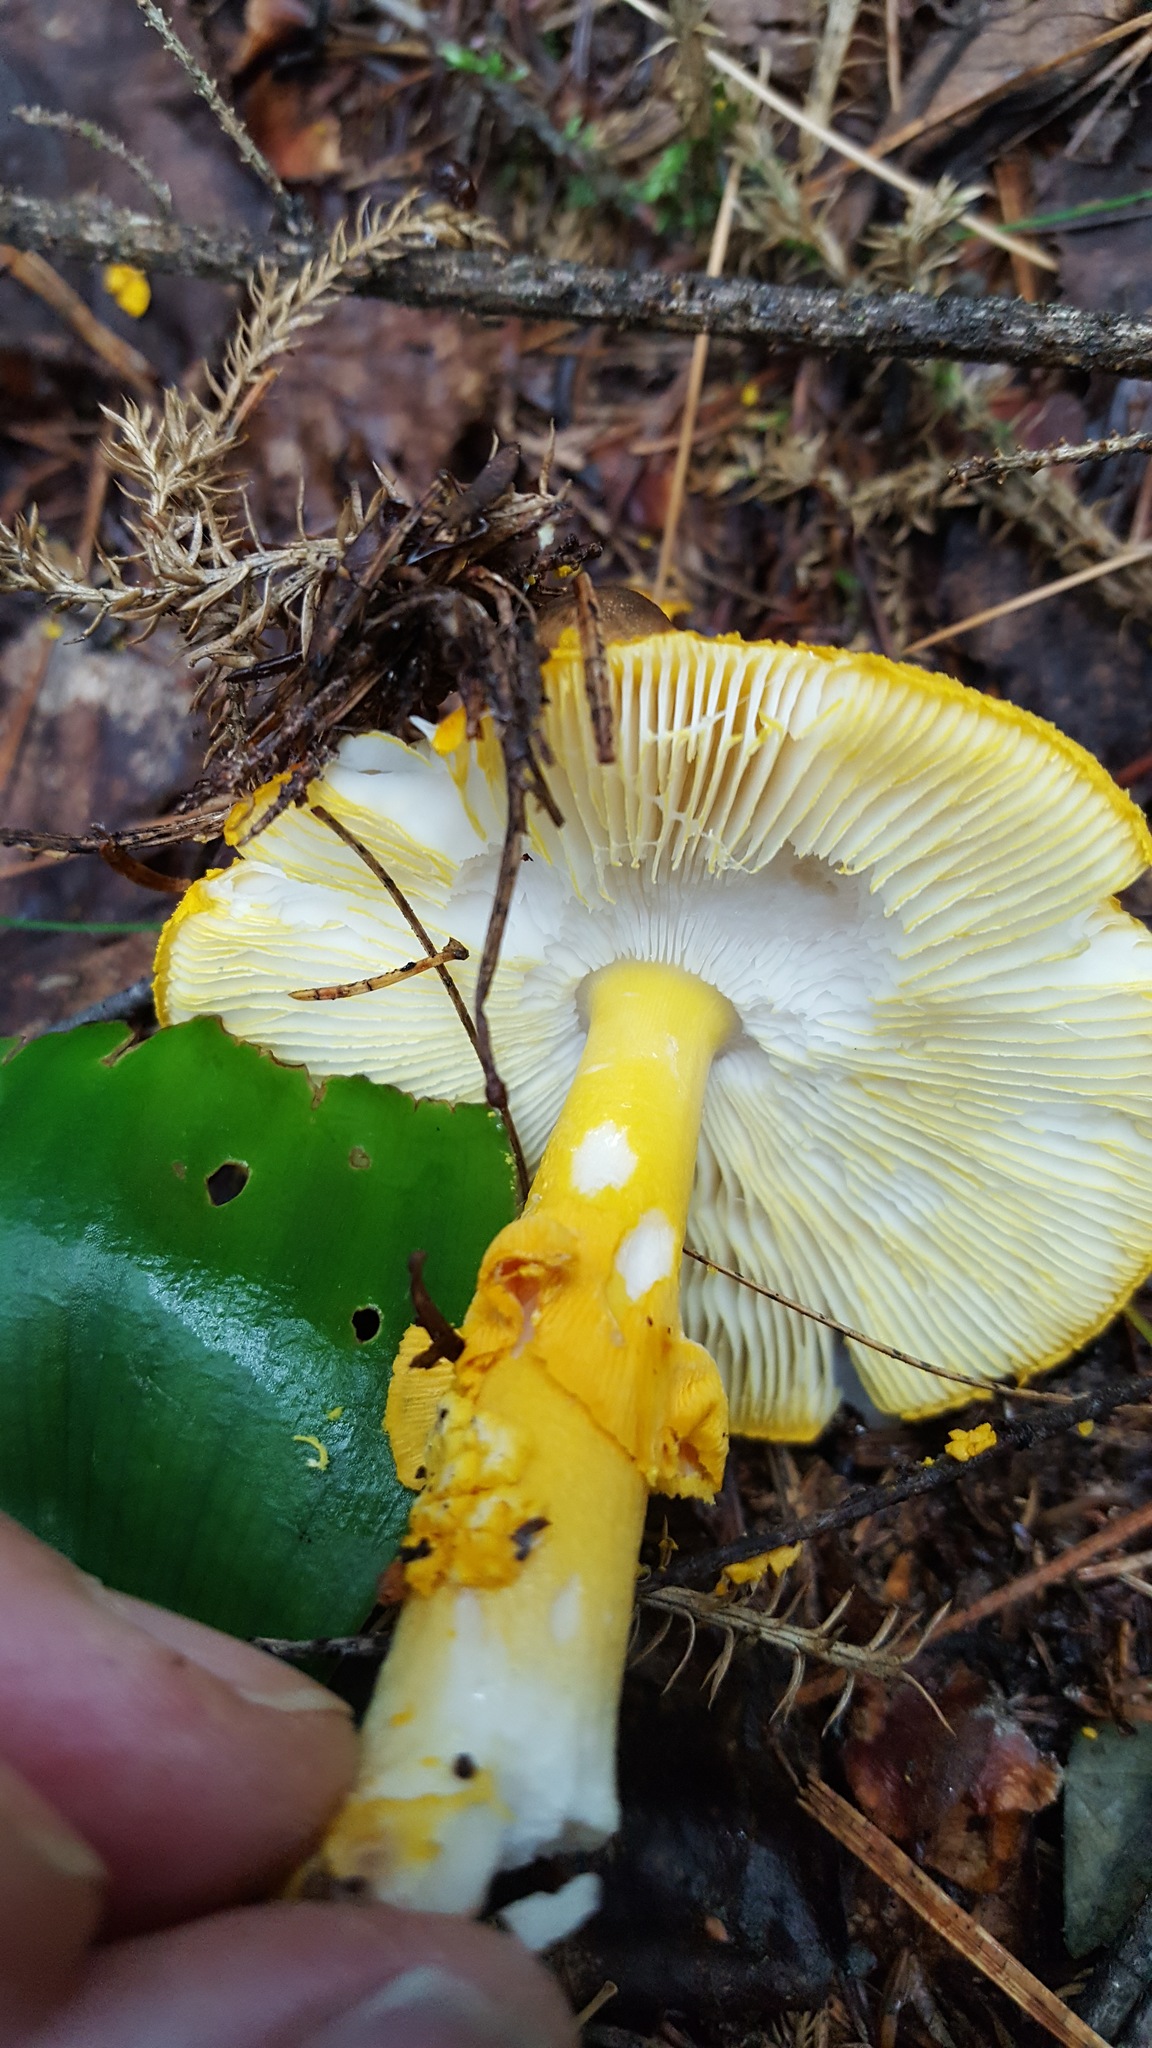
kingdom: Fungi
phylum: Basidiomycota
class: Agaricomycetes
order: Agaricales
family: Amanitaceae
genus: Amanita
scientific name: Amanita flavoconia
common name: Yellow patches
